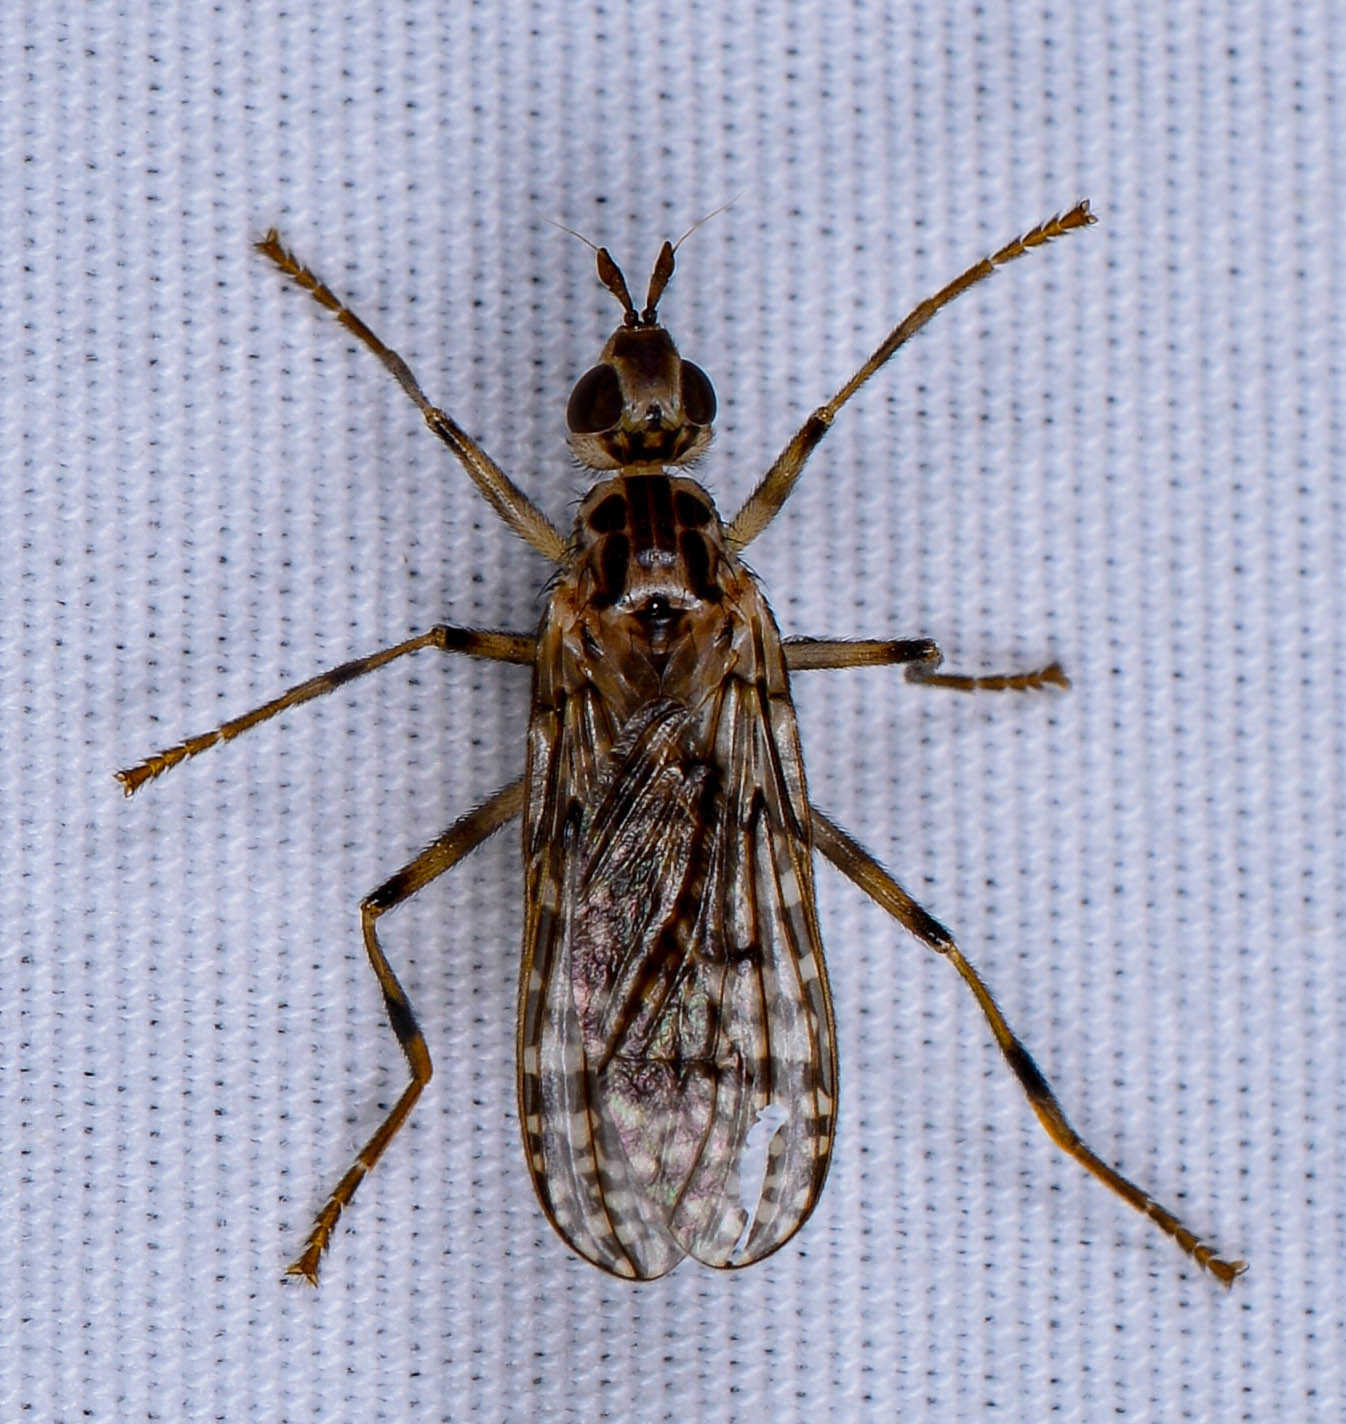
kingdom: Animalia
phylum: Arthropoda
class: Insecta
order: Diptera
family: Pyrgotidae
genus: Boreothrinax
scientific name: Boreothrinax
